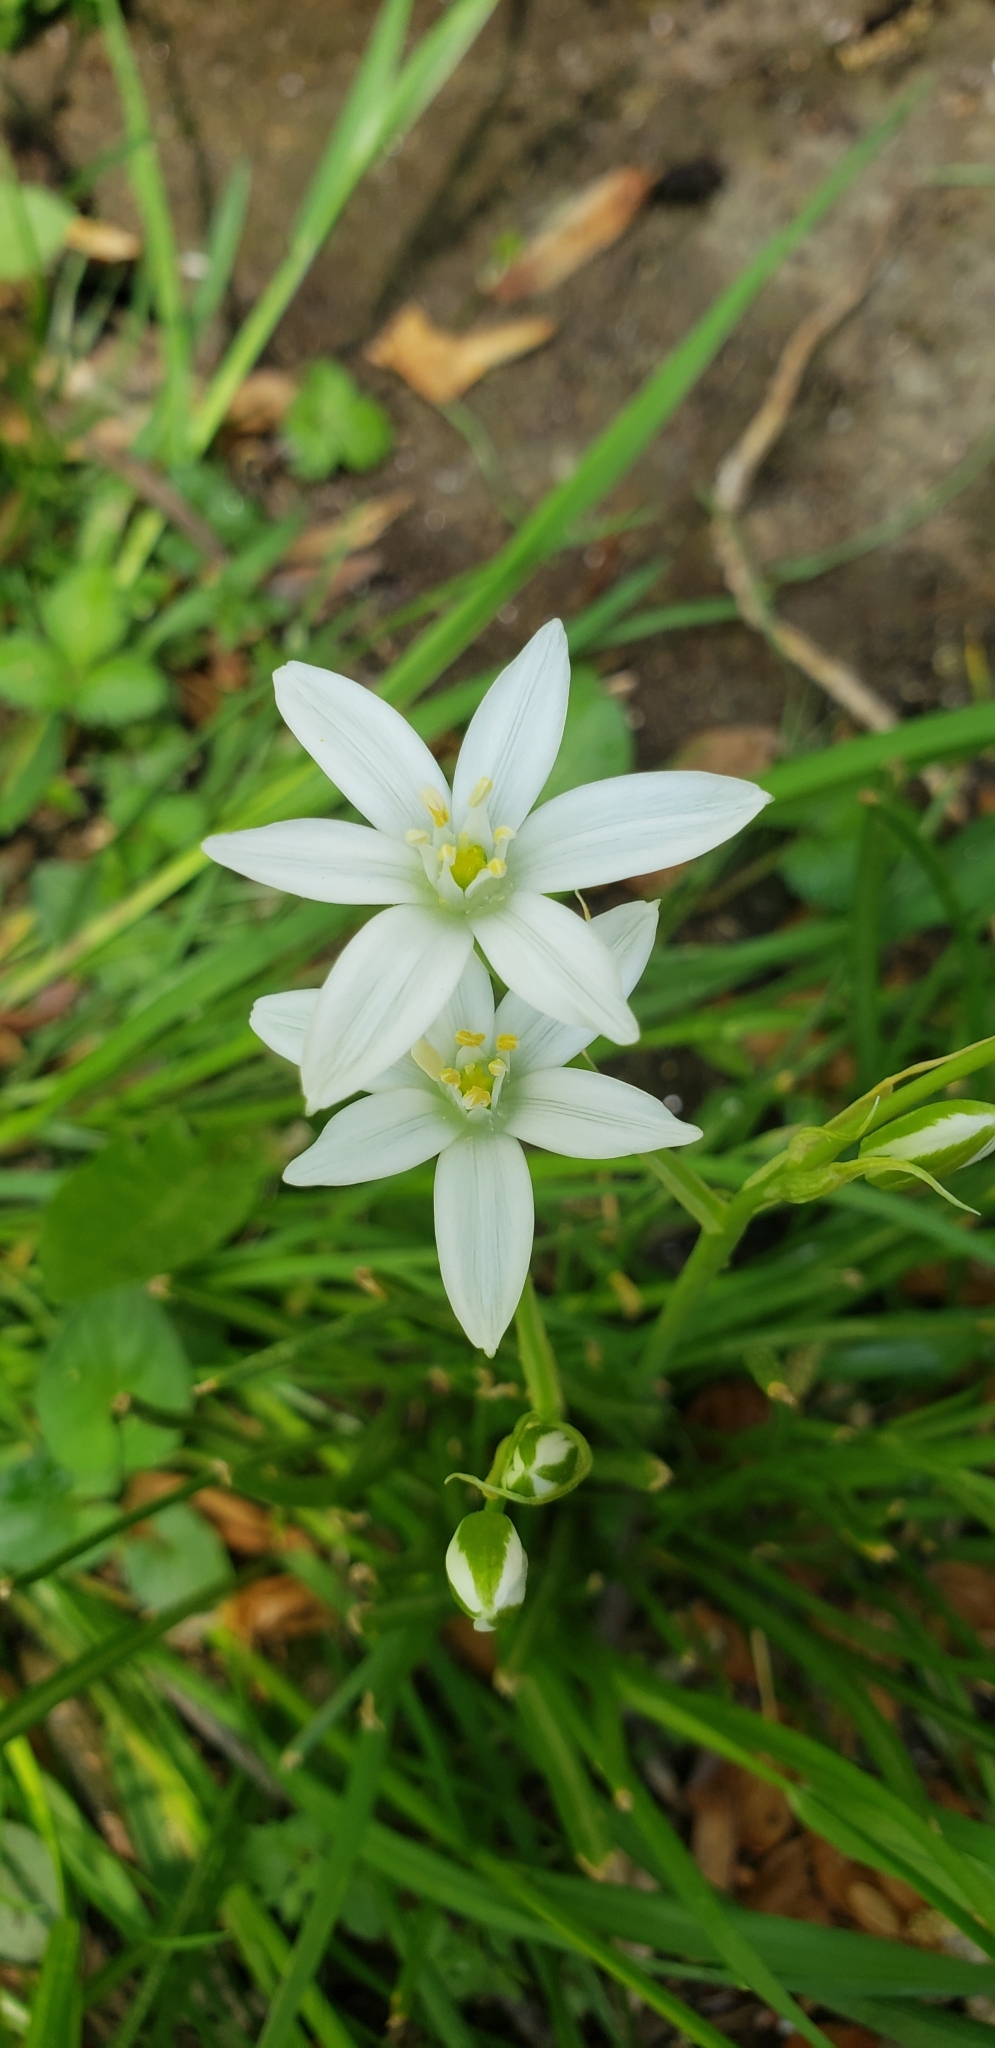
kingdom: Plantae
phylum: Tracheophyta
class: Liliopsida
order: Asparagales
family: Asparagaceae
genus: Ornithogalum
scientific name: Ornithogalum umbellatum
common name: Garden star-of-bethlehem
